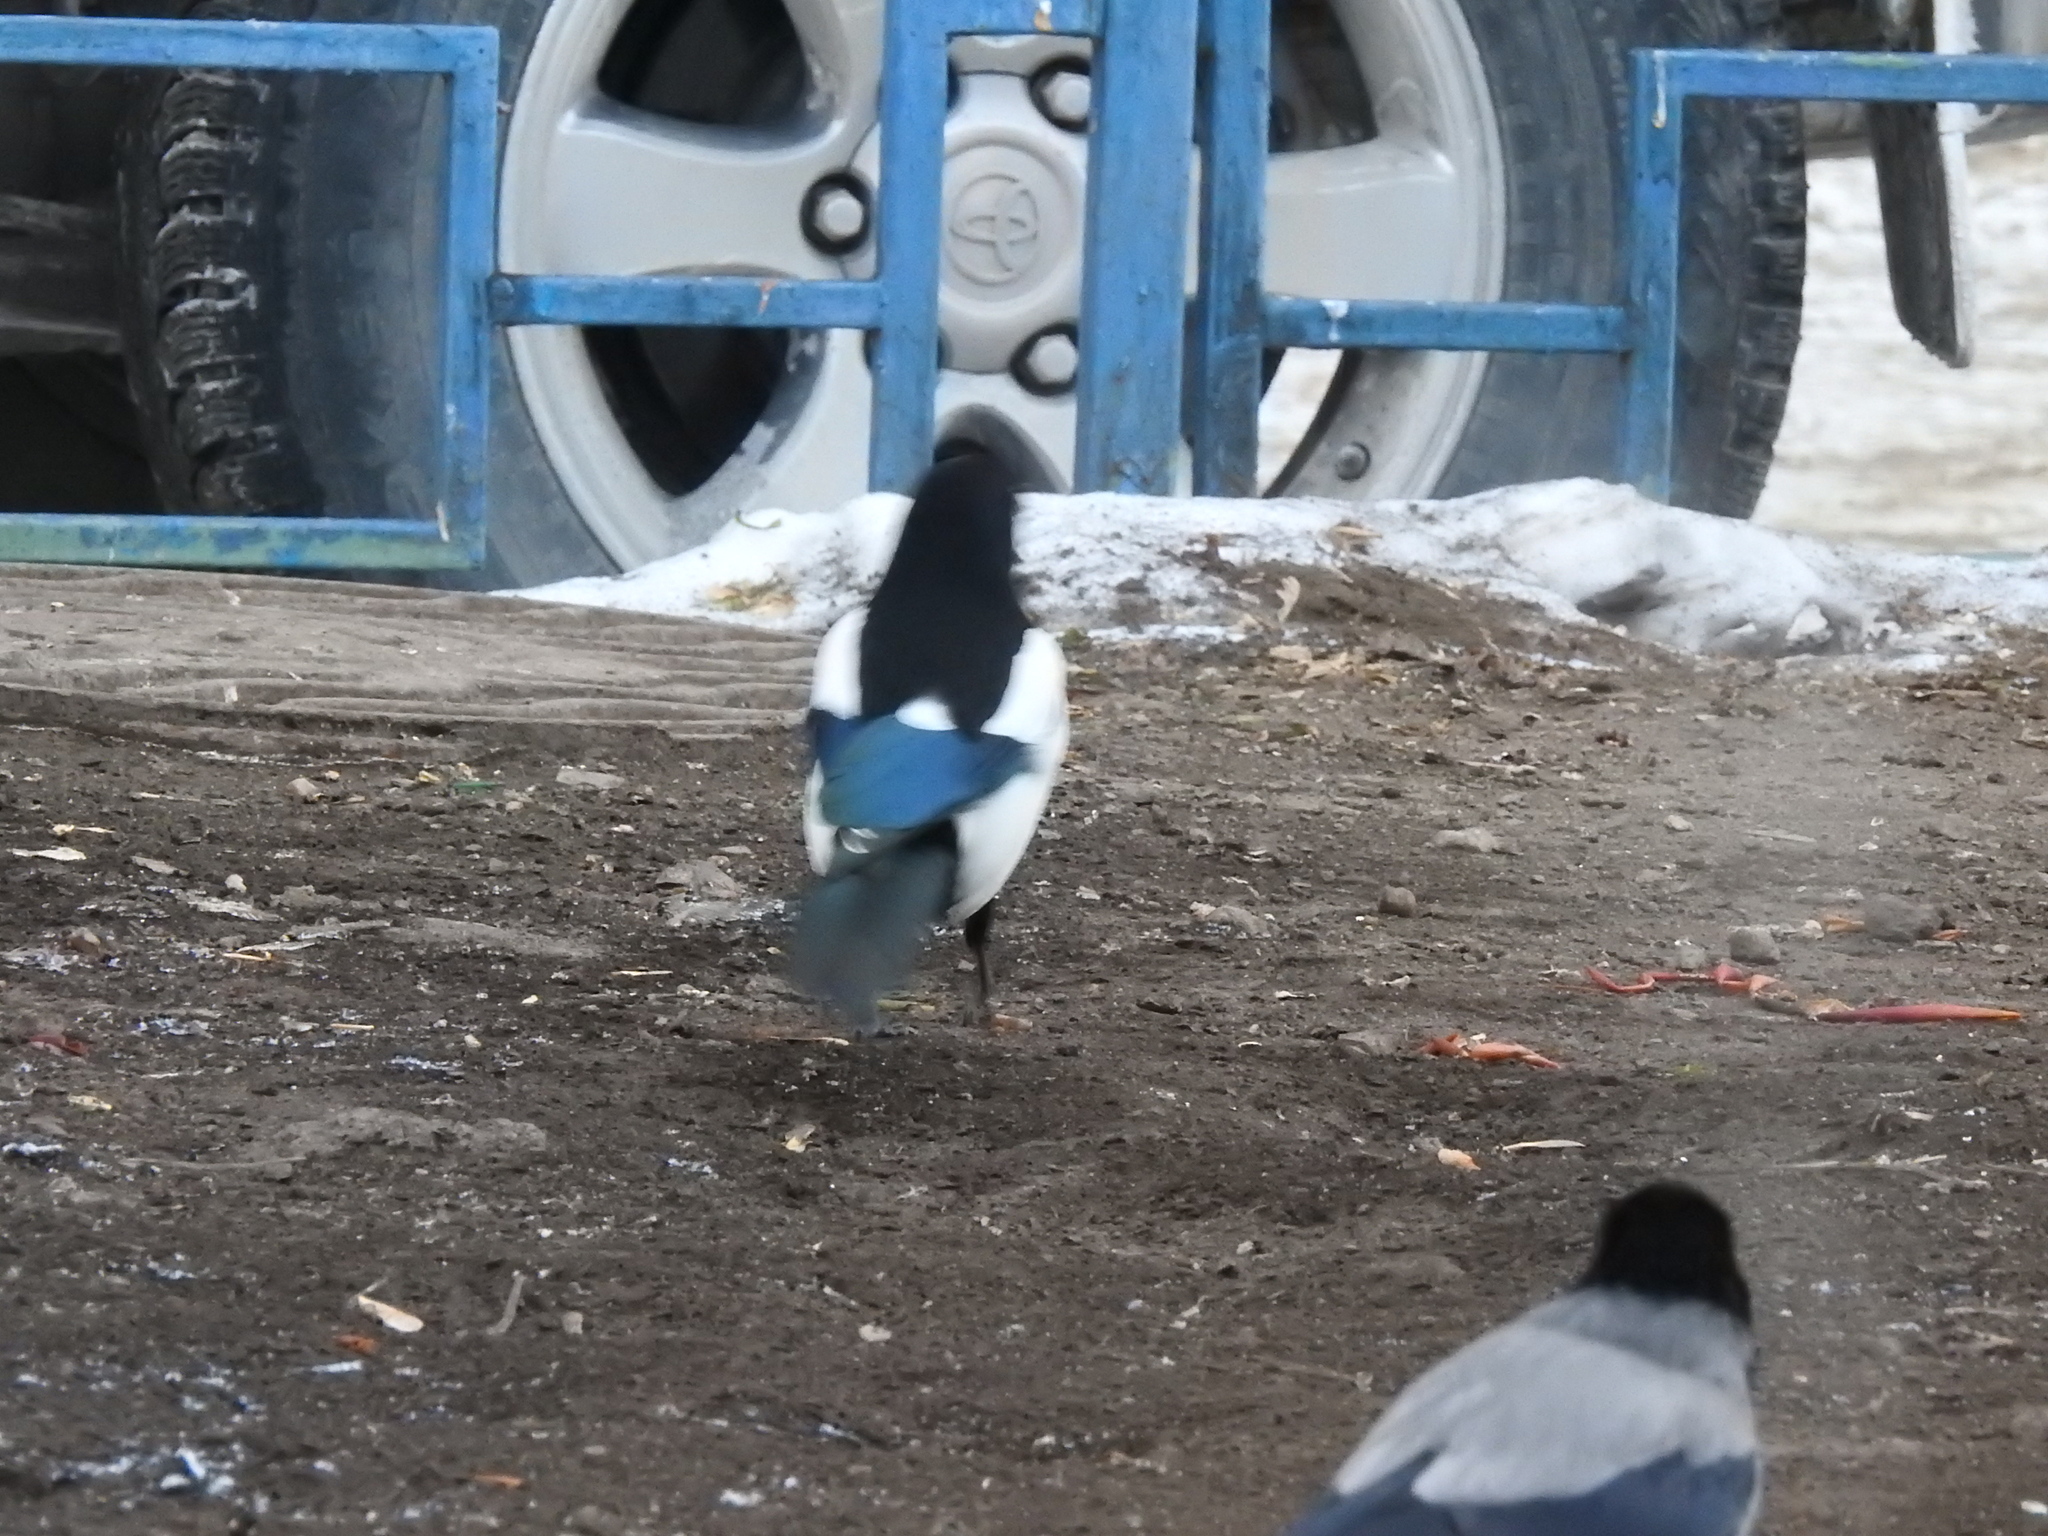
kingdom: Animalia
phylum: Chordata
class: Aves
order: Passeriformes
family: Corvidae
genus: Pica
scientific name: Pica pica
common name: Eurasian magpie
